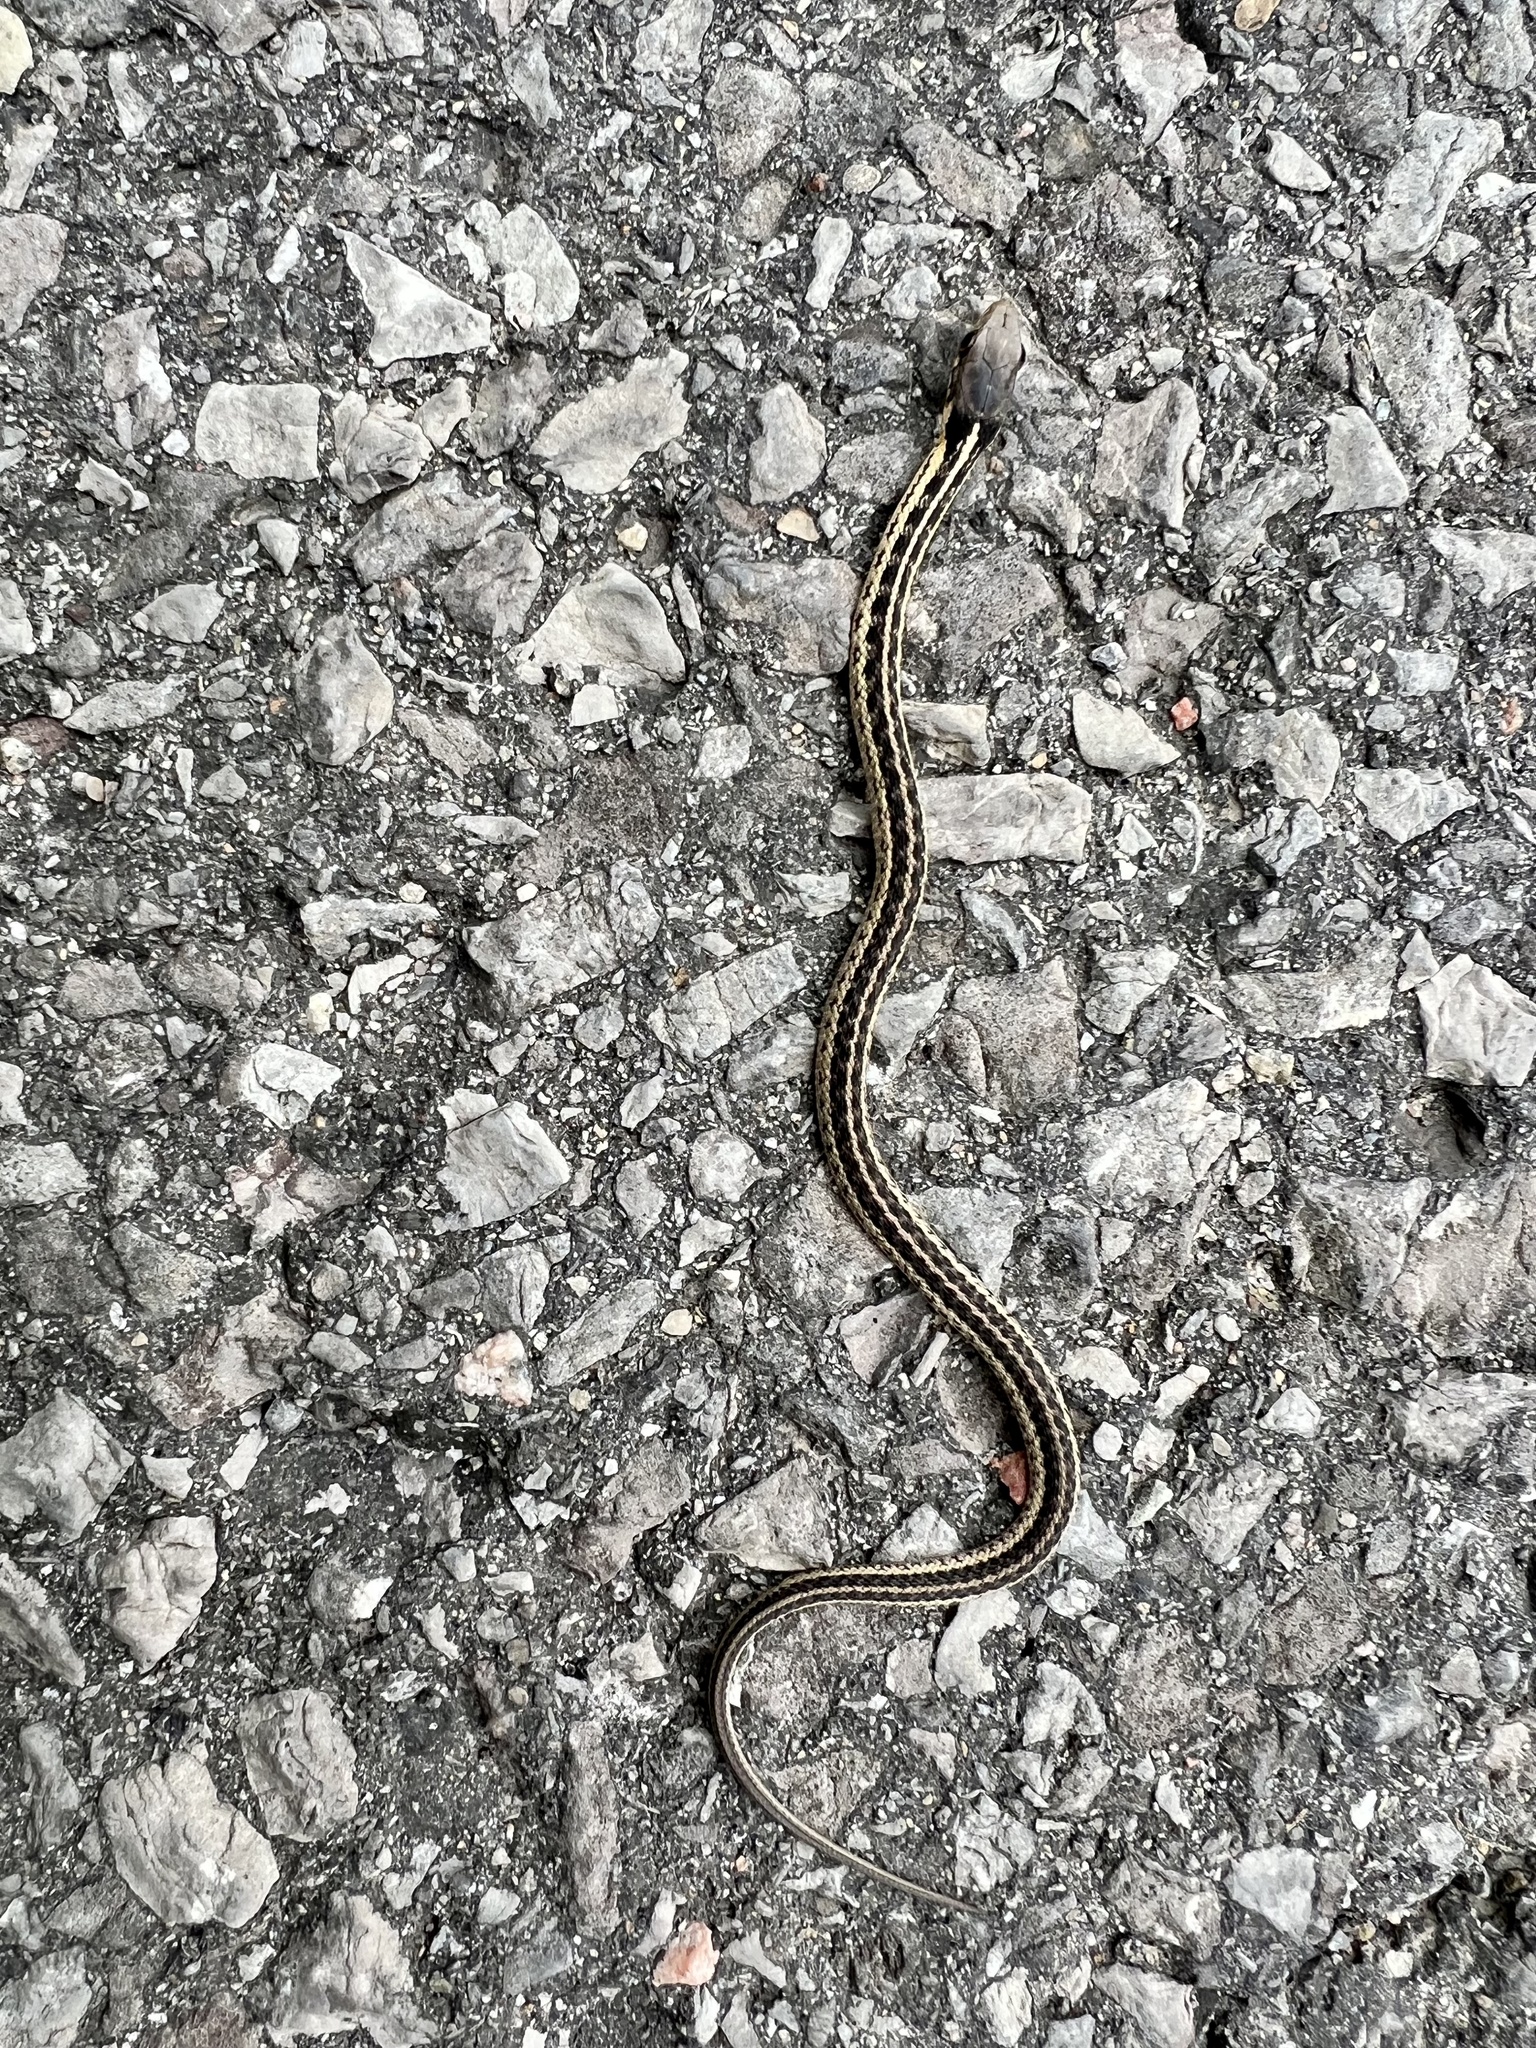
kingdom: Animalia
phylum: Chordata
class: Squamata
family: Colubridae
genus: Thamnophis
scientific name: Thamnophis sirtalis
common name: Common garter snake
